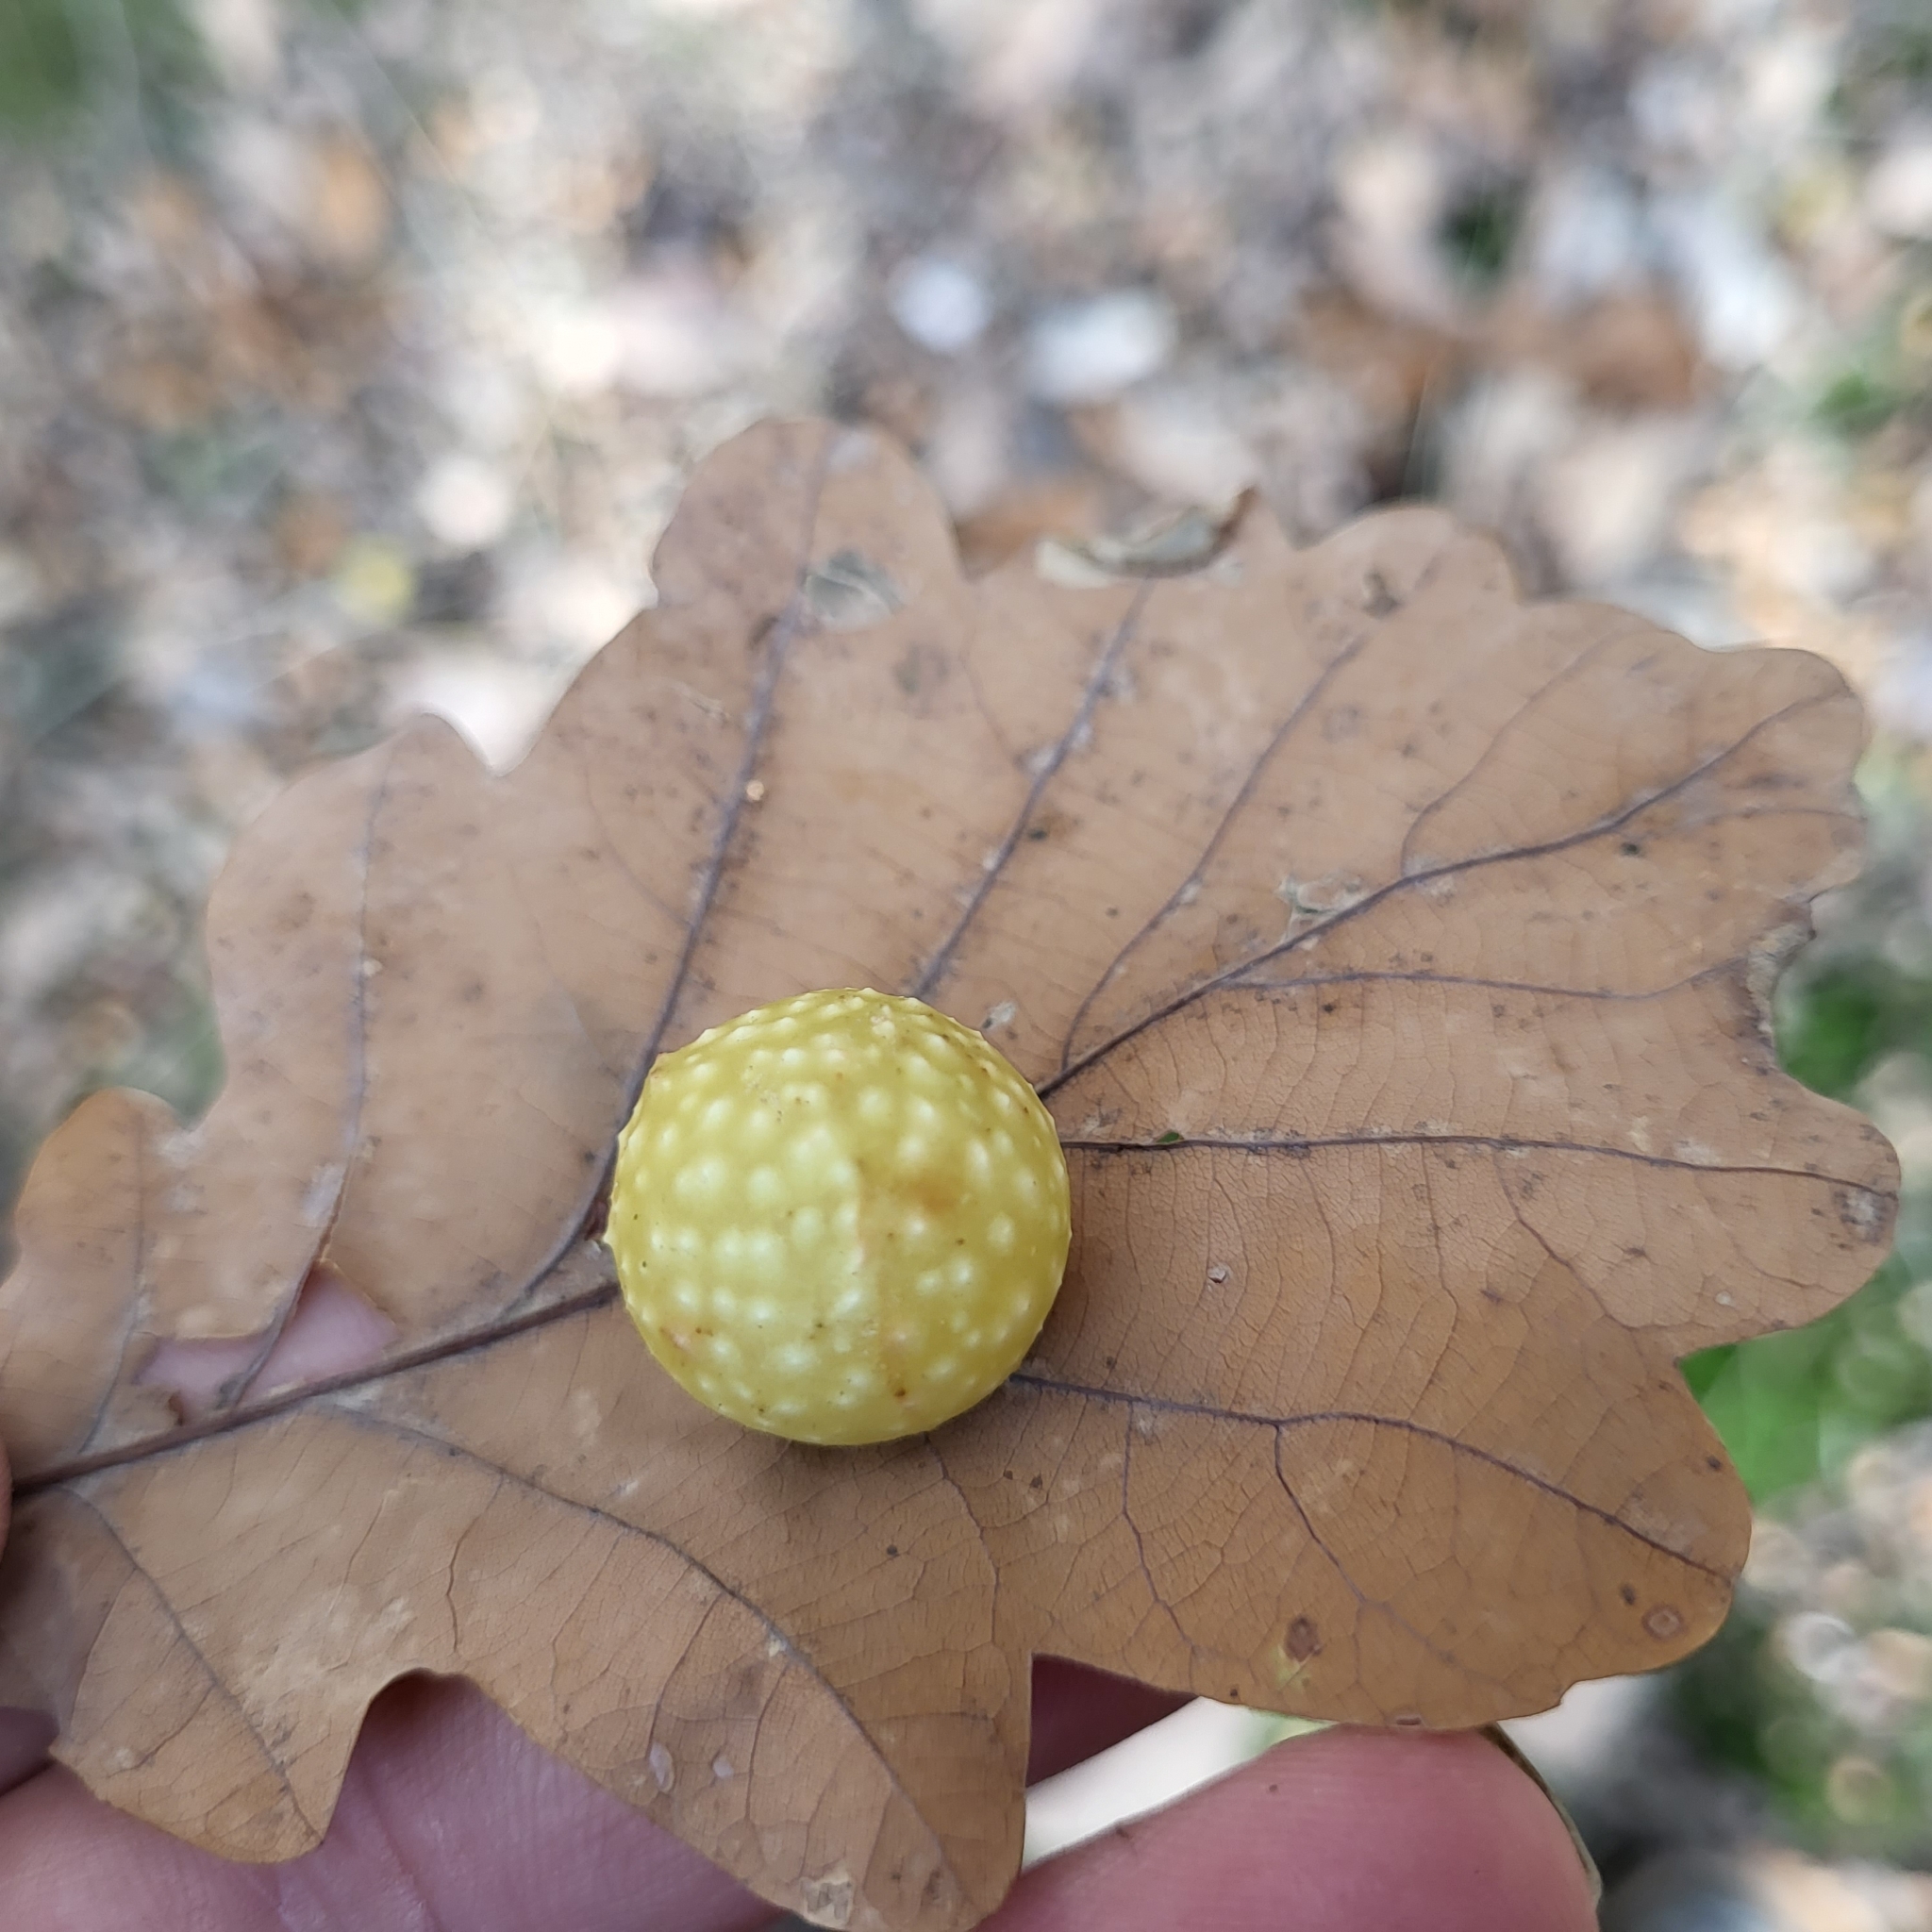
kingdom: Animalia
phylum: Arthropoda
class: Insecta
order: Hymenoptera
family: Cynipidae
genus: Cynips
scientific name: Cynips quercusfolii
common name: Cherry gall
